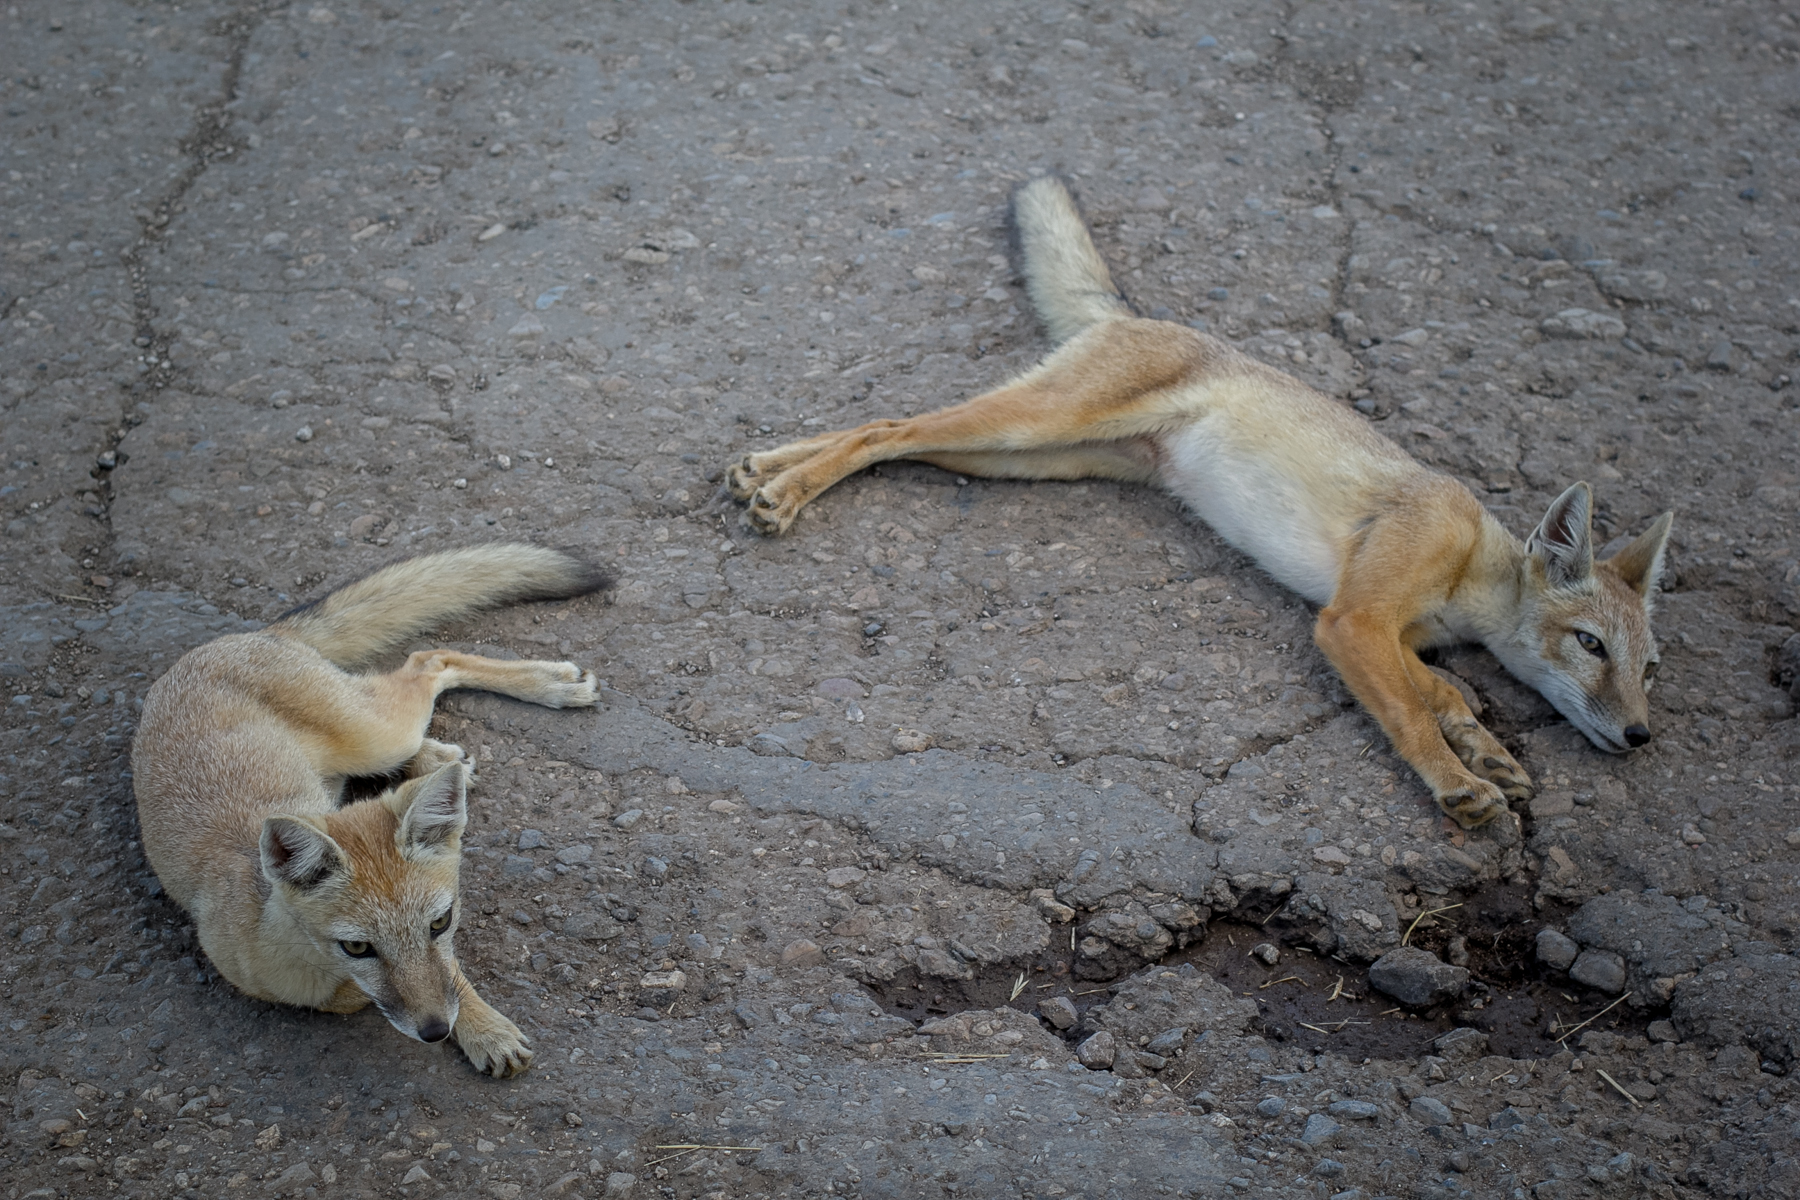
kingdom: Animalia
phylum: Chordata
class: Mammalia
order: Carnivora
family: Canidae
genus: Vulpes
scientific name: Vulpes corsac
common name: Corsac fox
